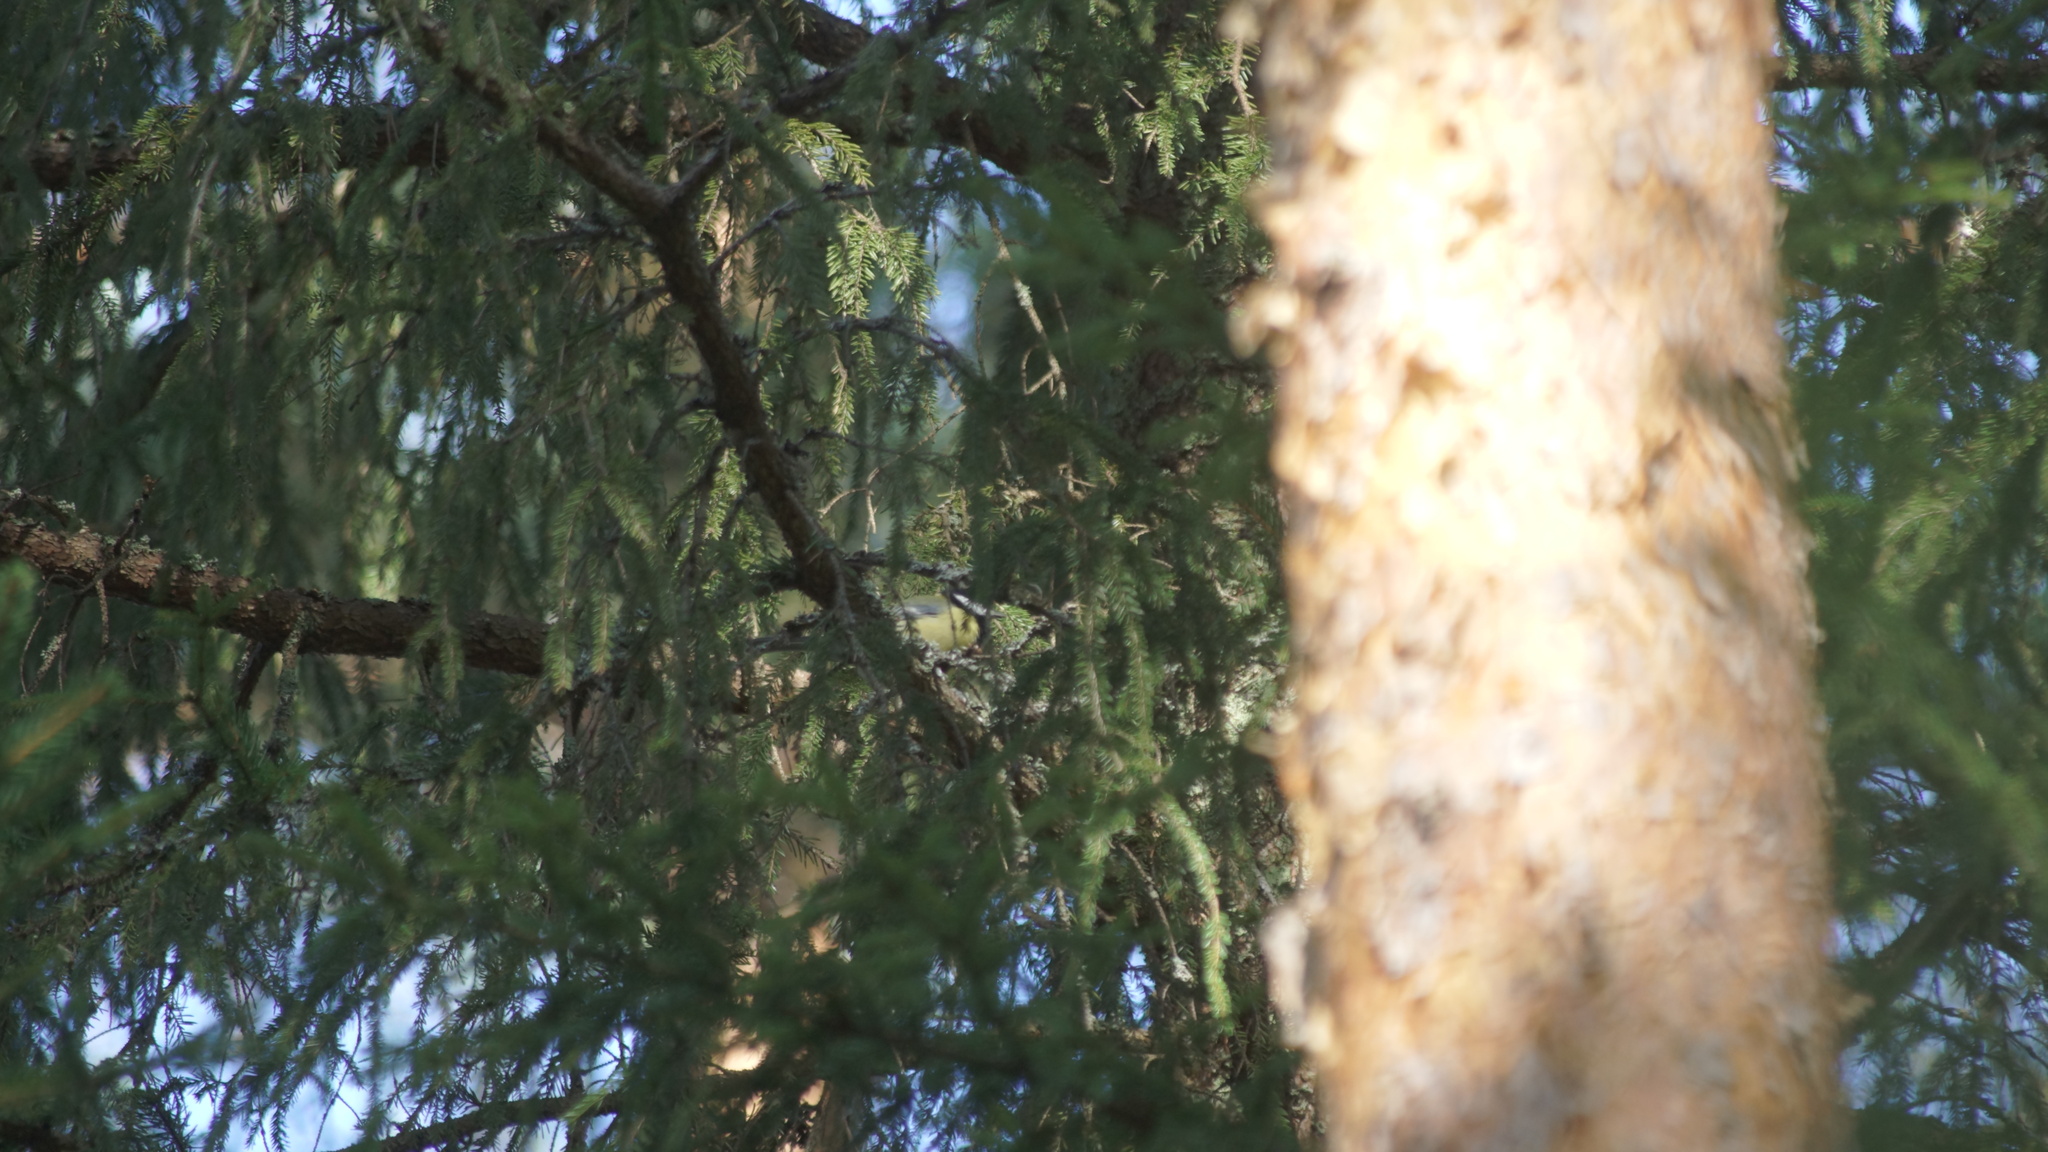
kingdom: Animalia
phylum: Chordata
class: Aves
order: Passeriformes
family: Paridae
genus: Parus
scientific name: Parus major
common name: Great tit
